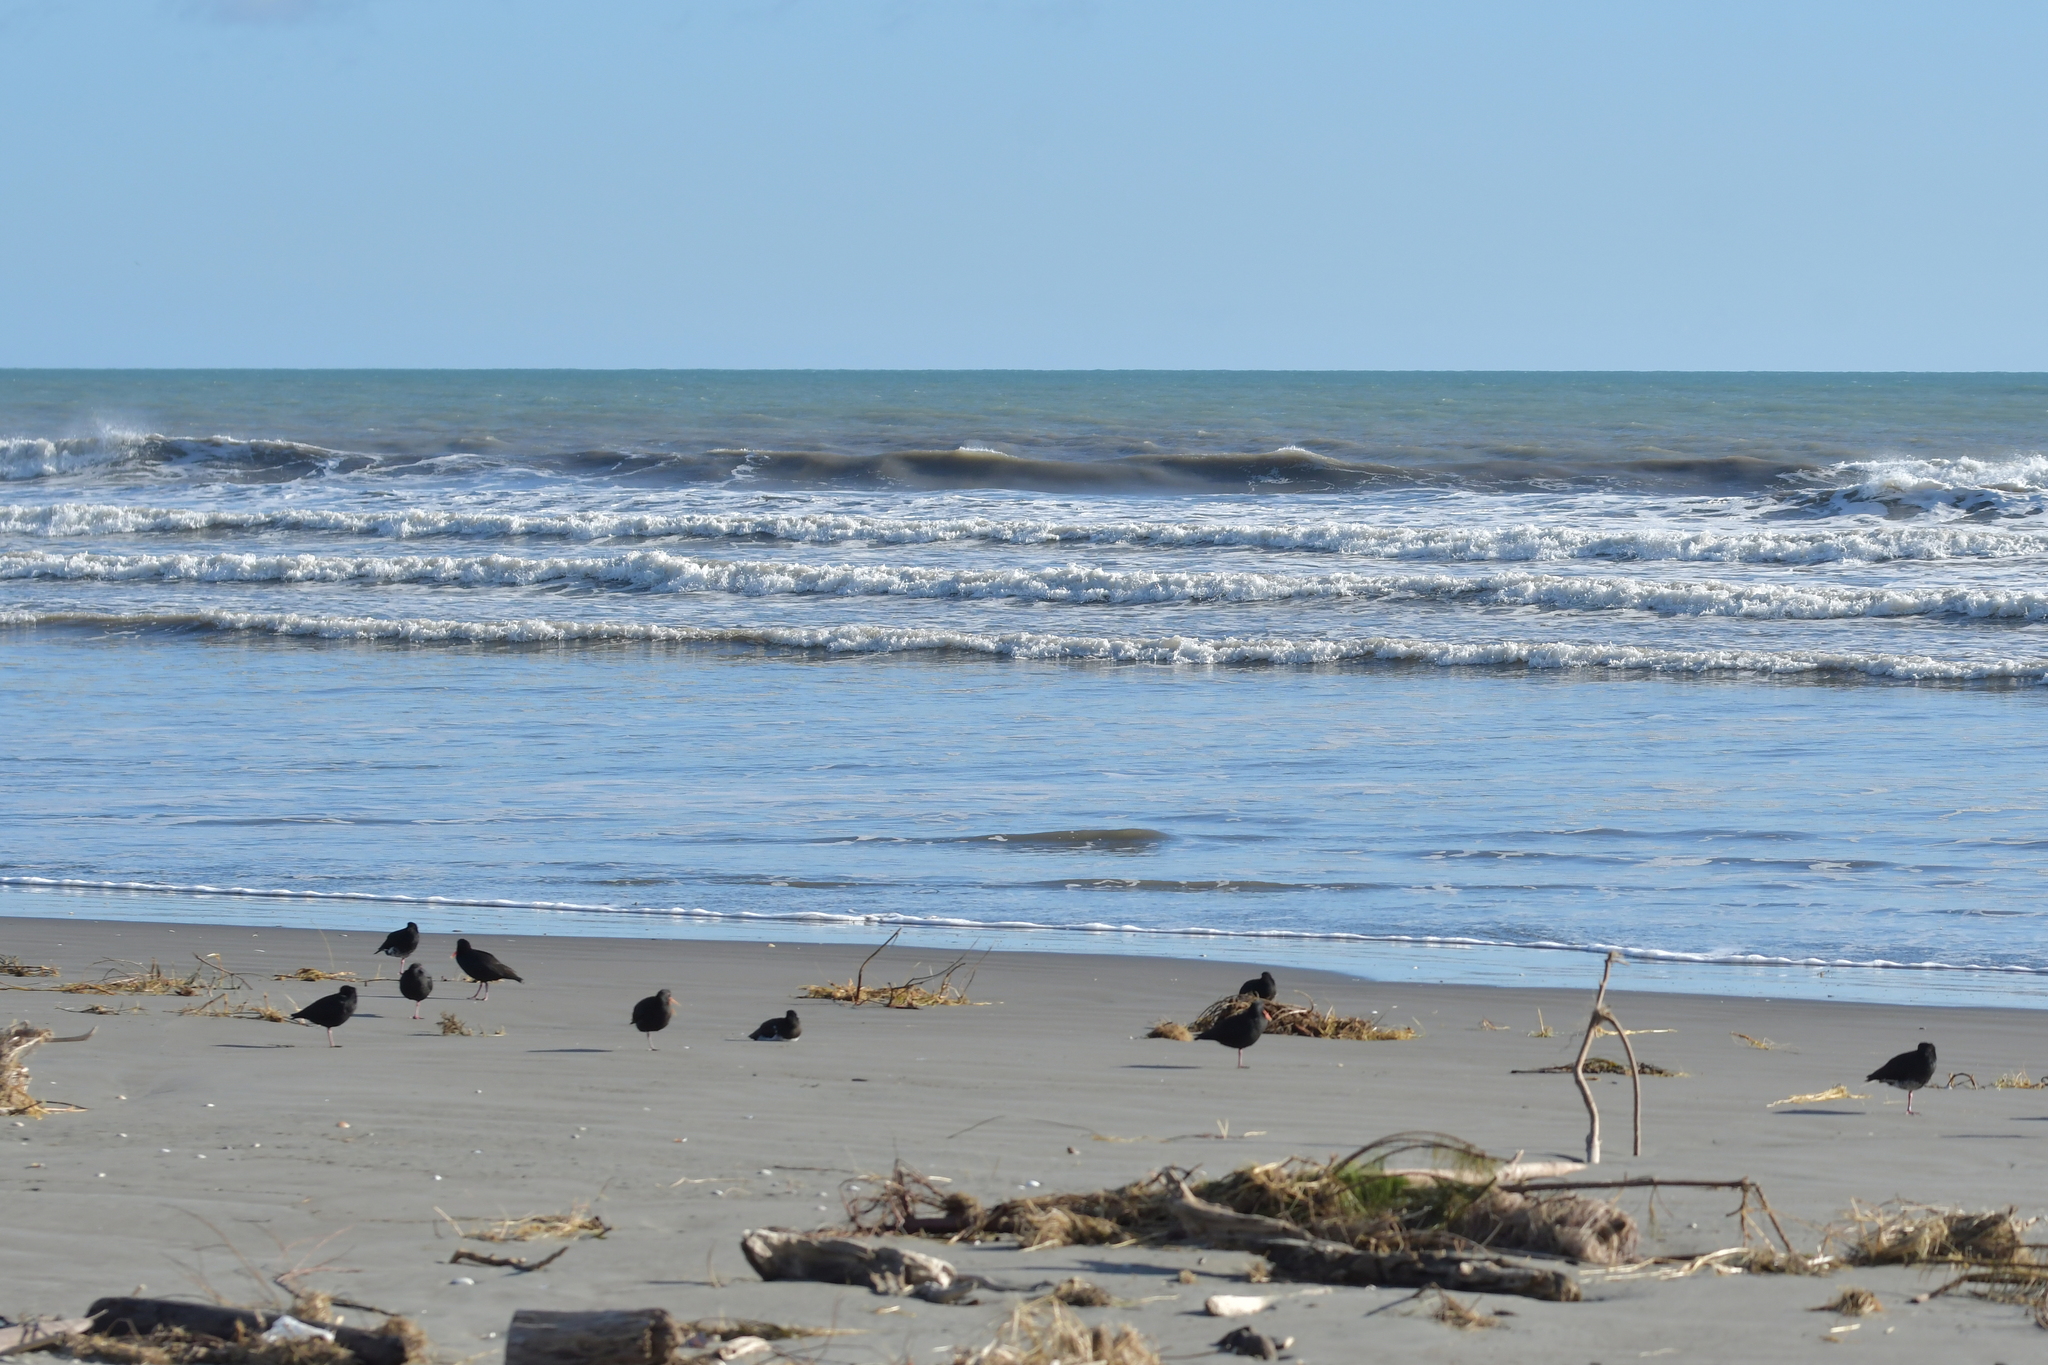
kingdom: Animalia
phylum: Chordata
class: Aves
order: Charadriiformes
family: Haematopodidae
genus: Haematopus
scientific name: Haematopus unicolor
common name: Variable oystercatcher
